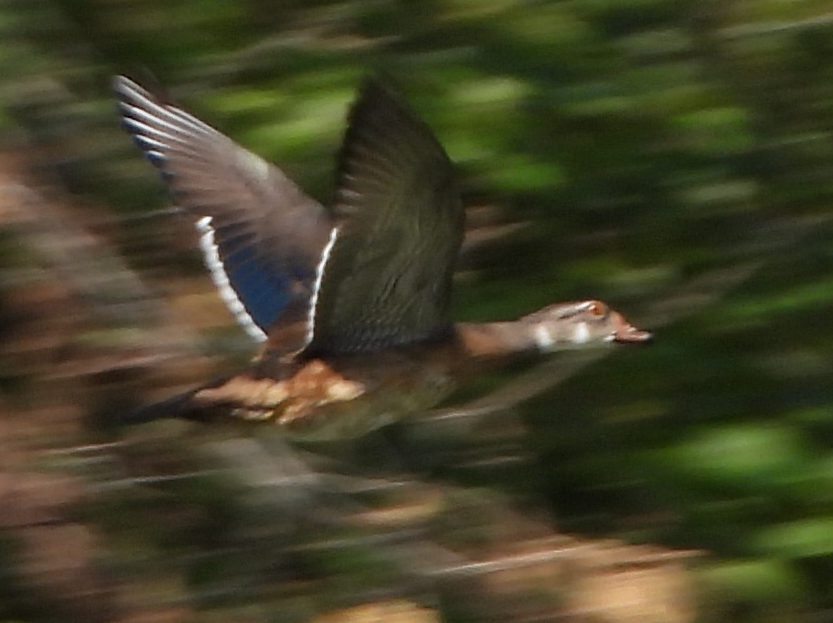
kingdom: Animalia
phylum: Chordata
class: Aves
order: Anseriformes
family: Anatidae
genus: Aix
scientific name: Aix sponsa
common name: Wood duck
